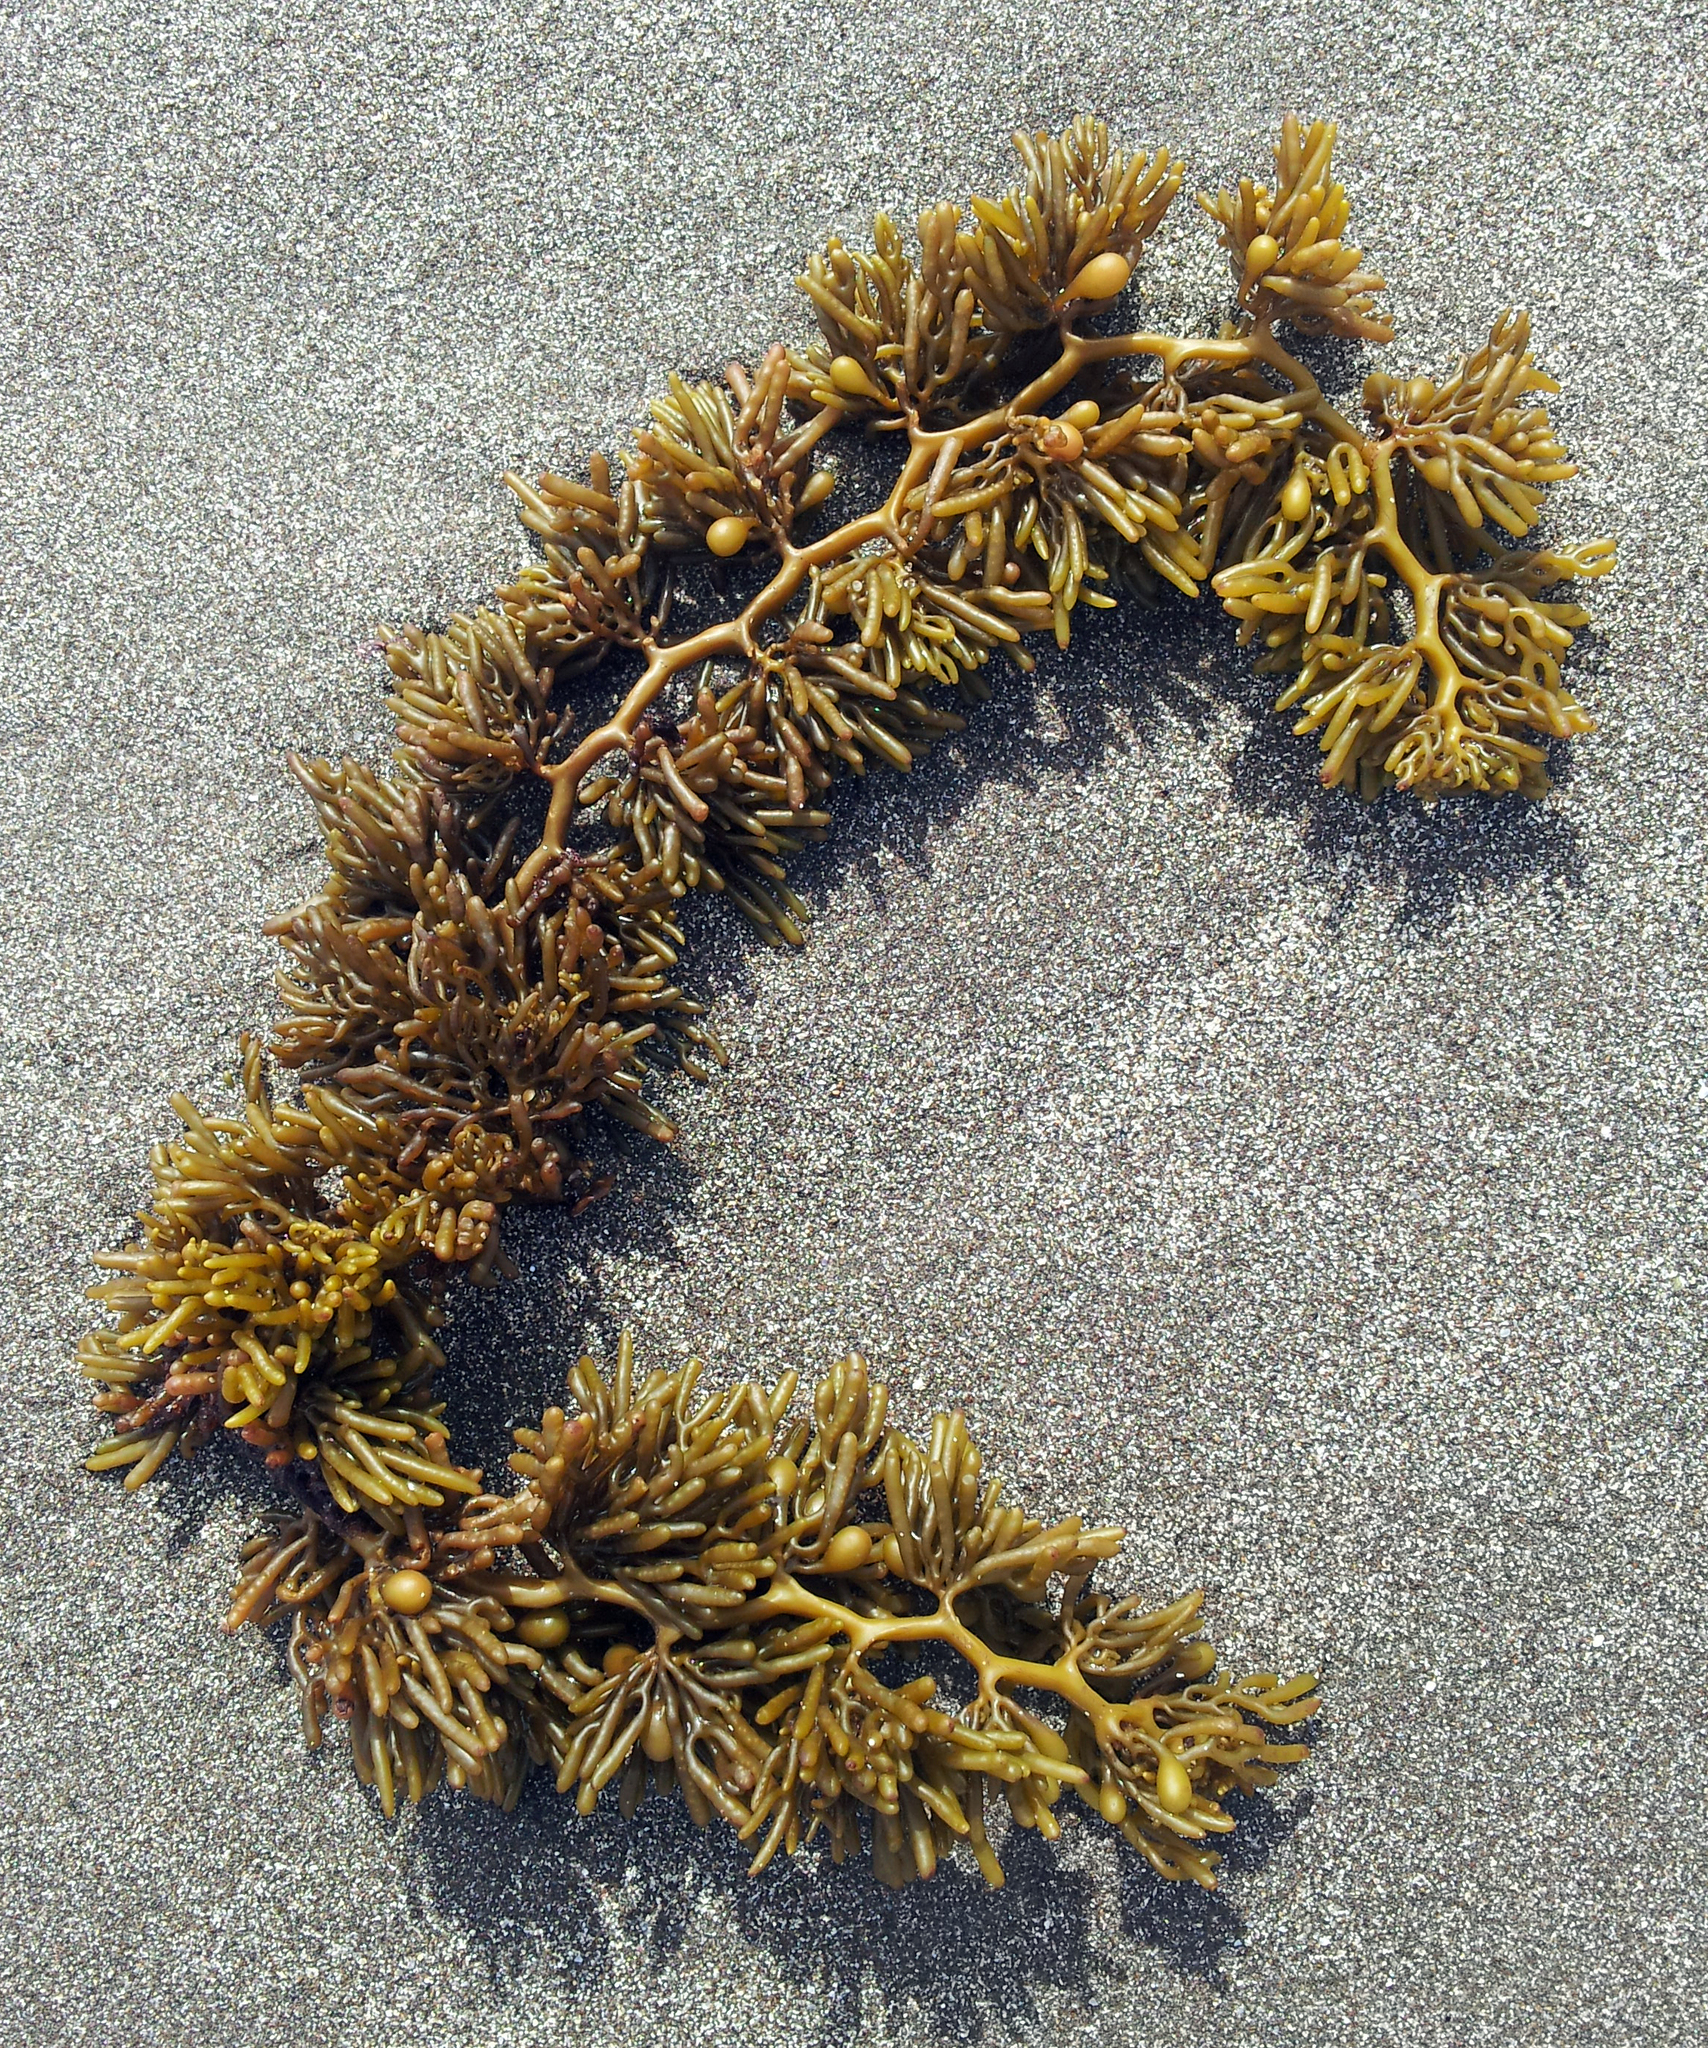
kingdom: Chromista
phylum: Ochrophyta
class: Phaeophyceae
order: Fucales
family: Sargassaceae
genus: Cystophora
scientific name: Cystophora torulosa
